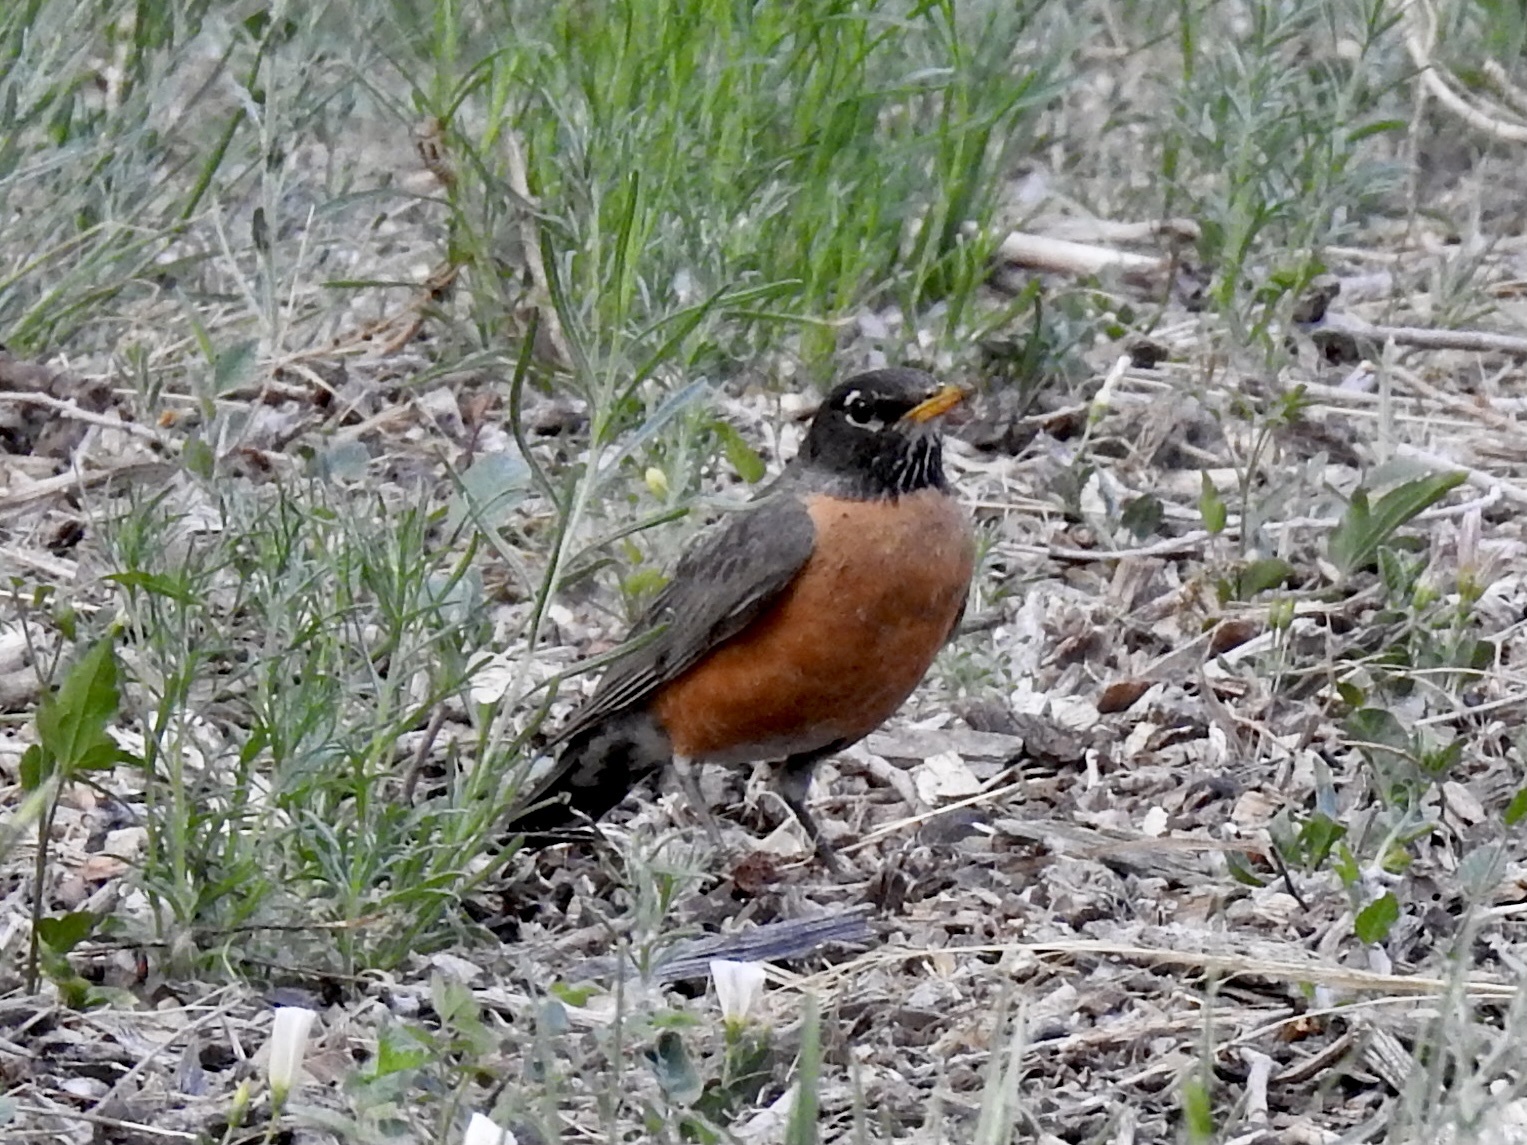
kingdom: Animalia
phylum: Chordata
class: Aves
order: Passeriformes
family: Turdidae
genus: Turdus
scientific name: Turdus migratorius
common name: American robin
